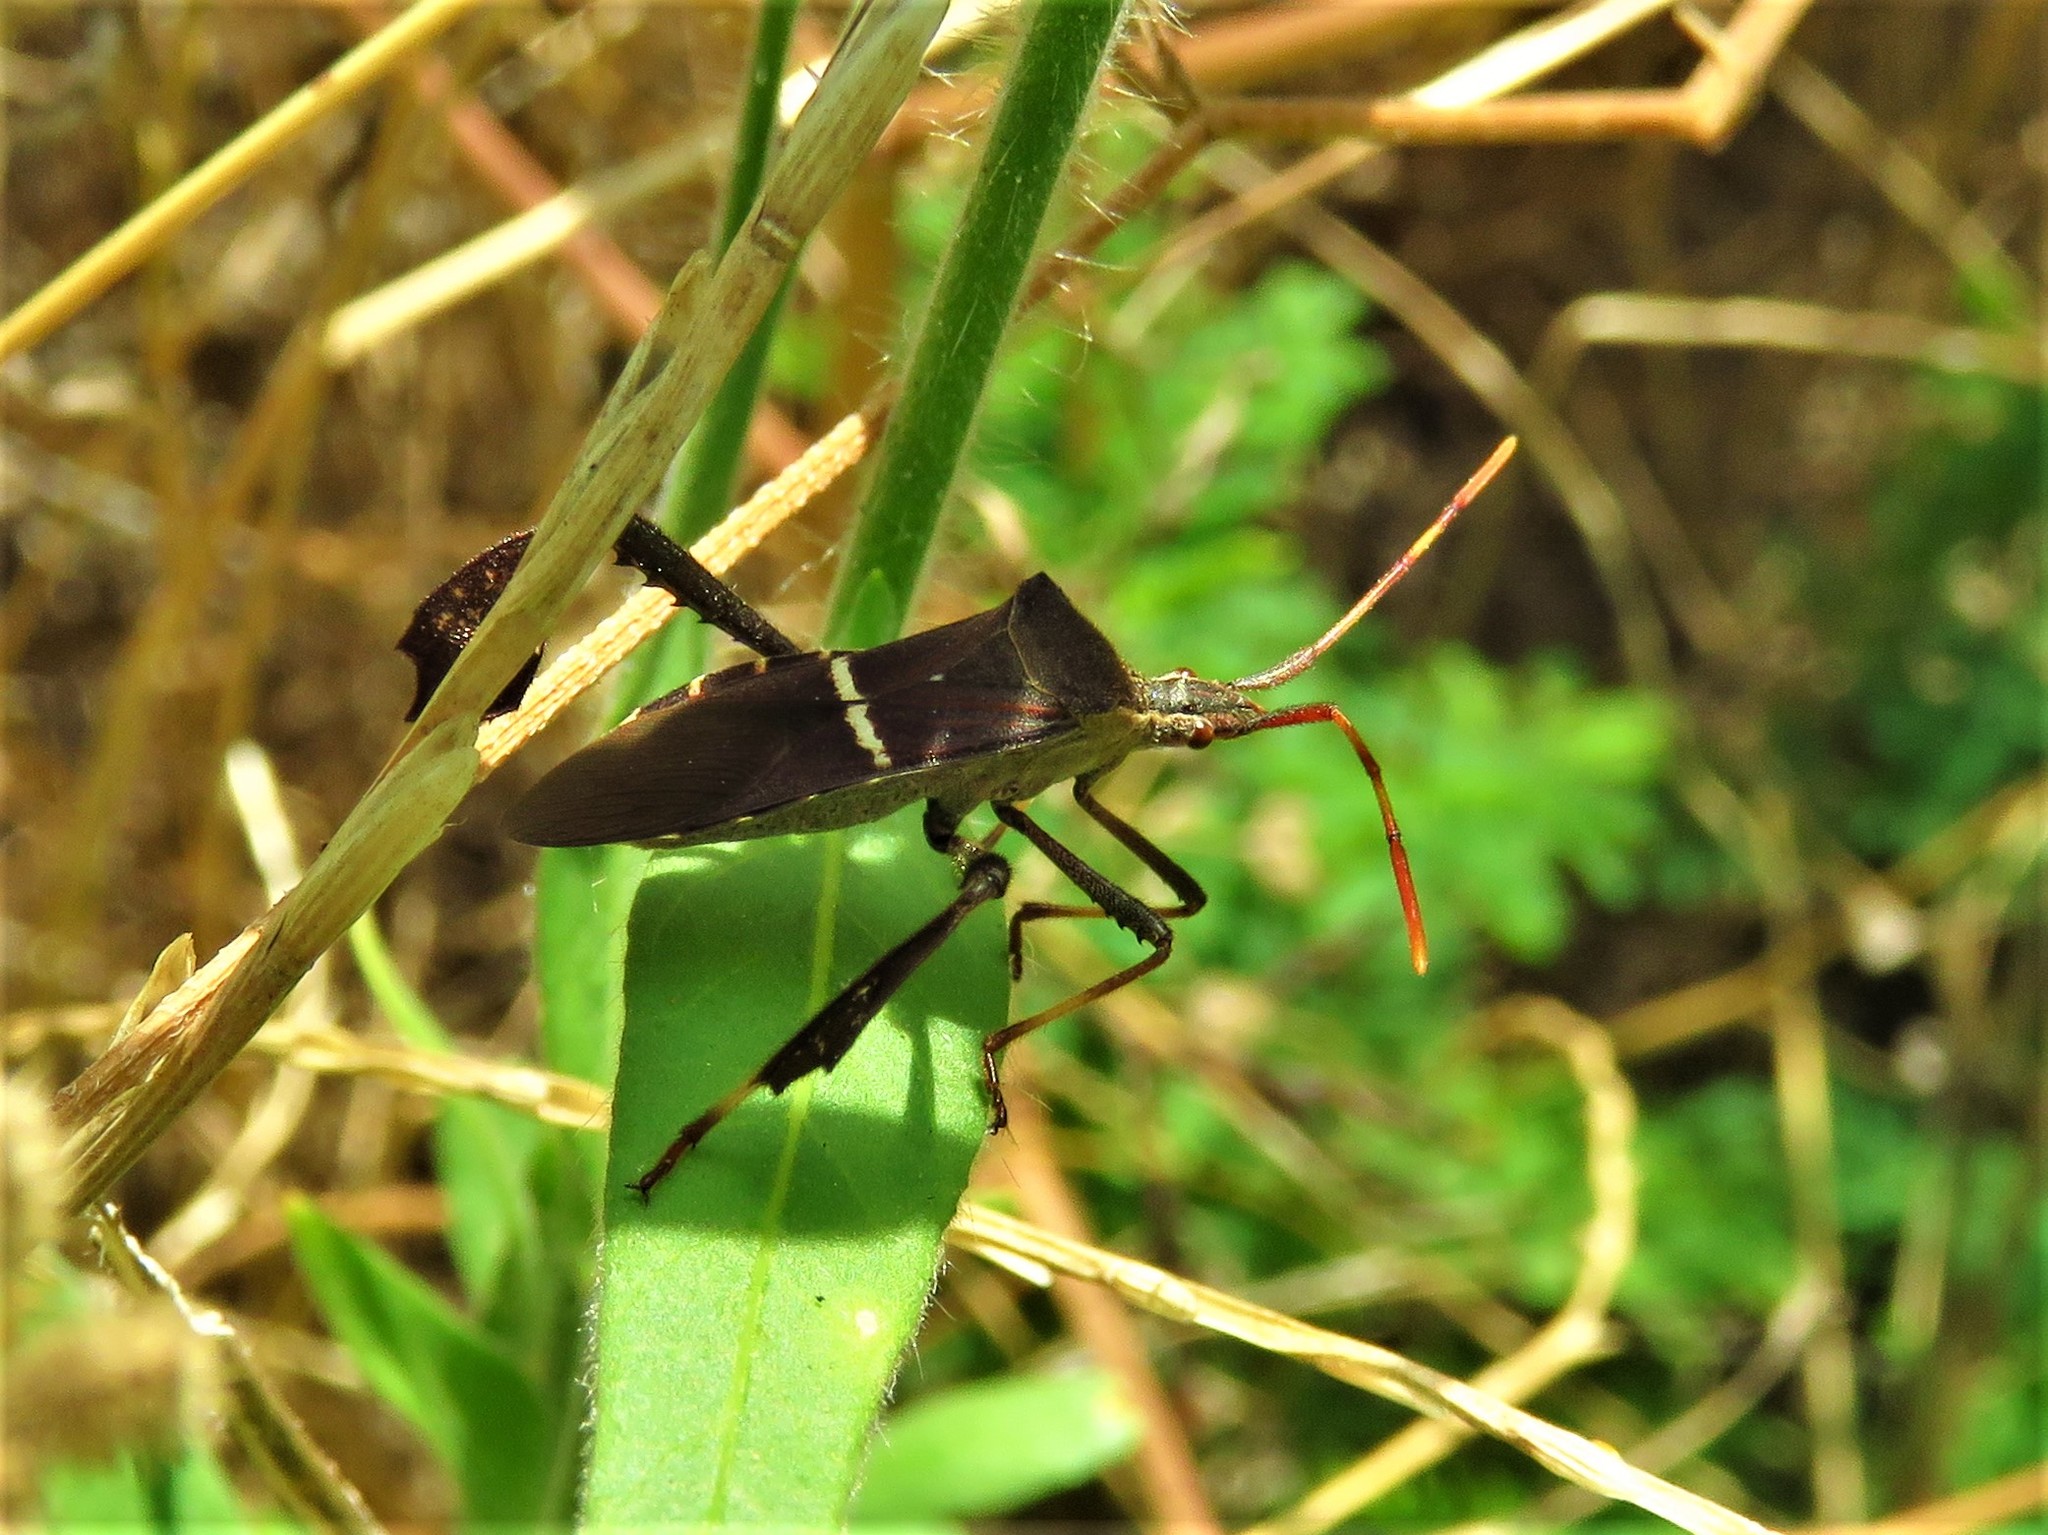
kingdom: Animalia
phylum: Arthropoda
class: Insecta
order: Hemiptera
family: Coreidae
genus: Leptoglossus
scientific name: Leptoglossus phyllopus
